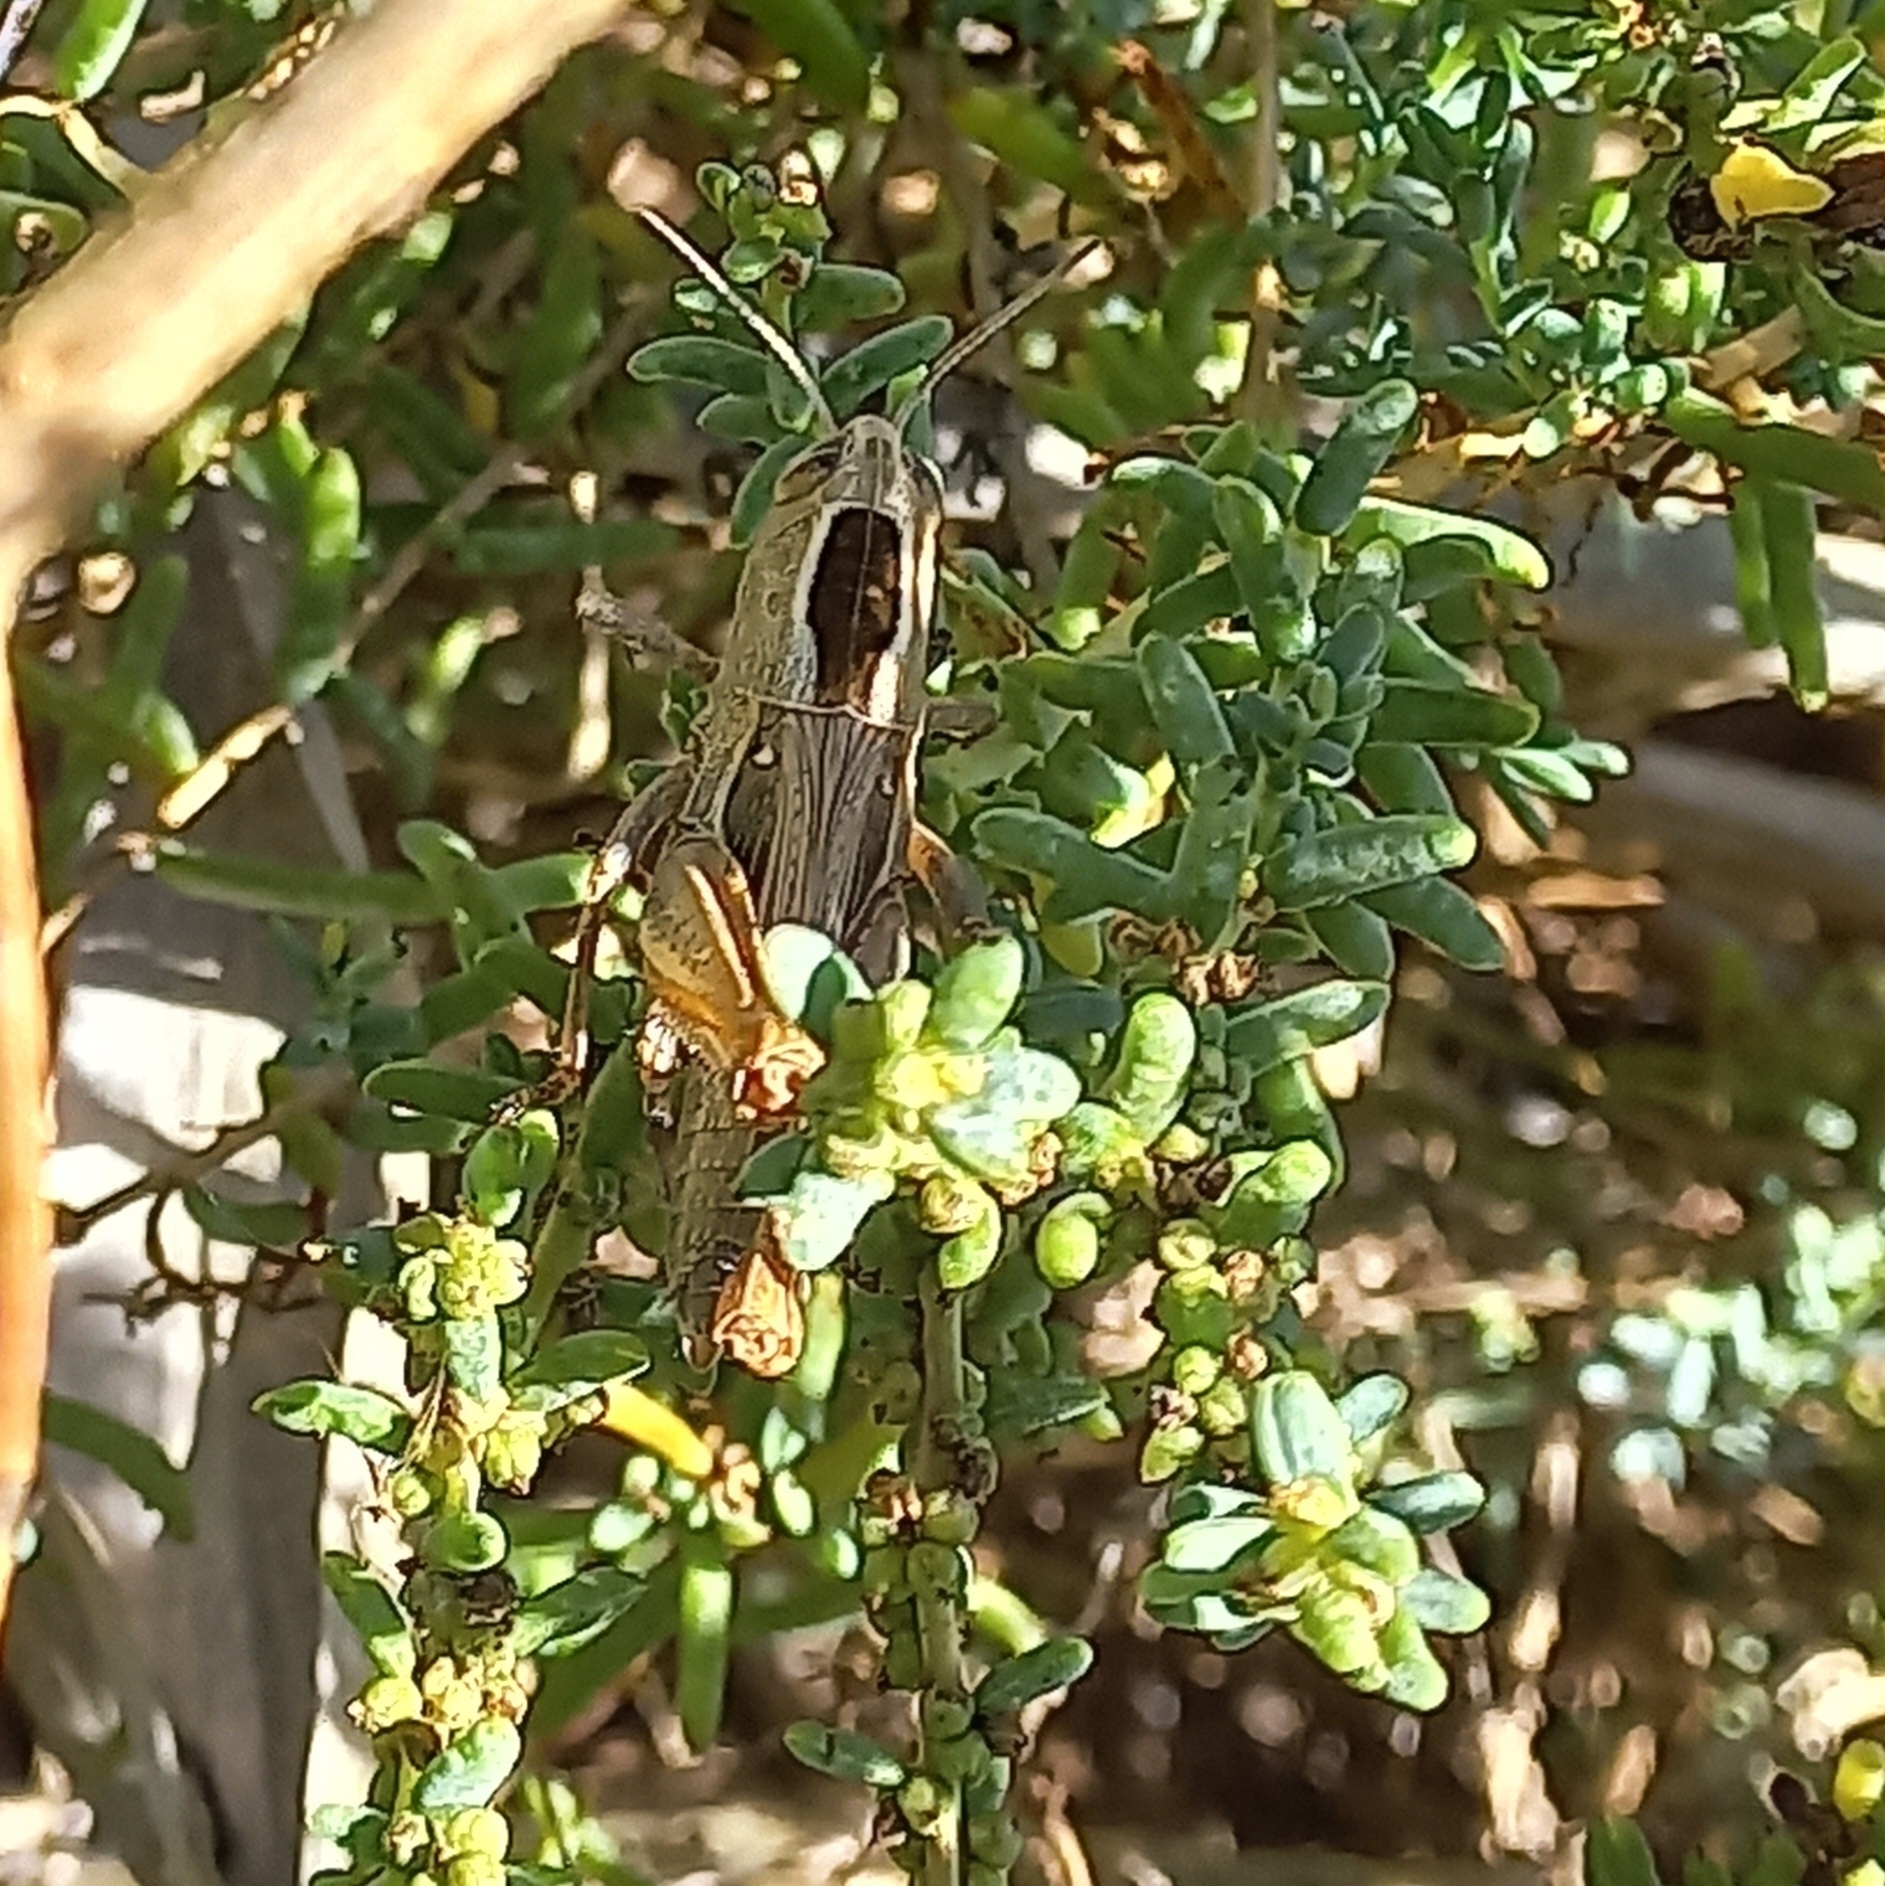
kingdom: Animalia
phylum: Arthropoda
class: Insecta
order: Orthoptera
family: Acrididae
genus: Eyprepocnemis
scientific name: Eyprepocnemis plorans
